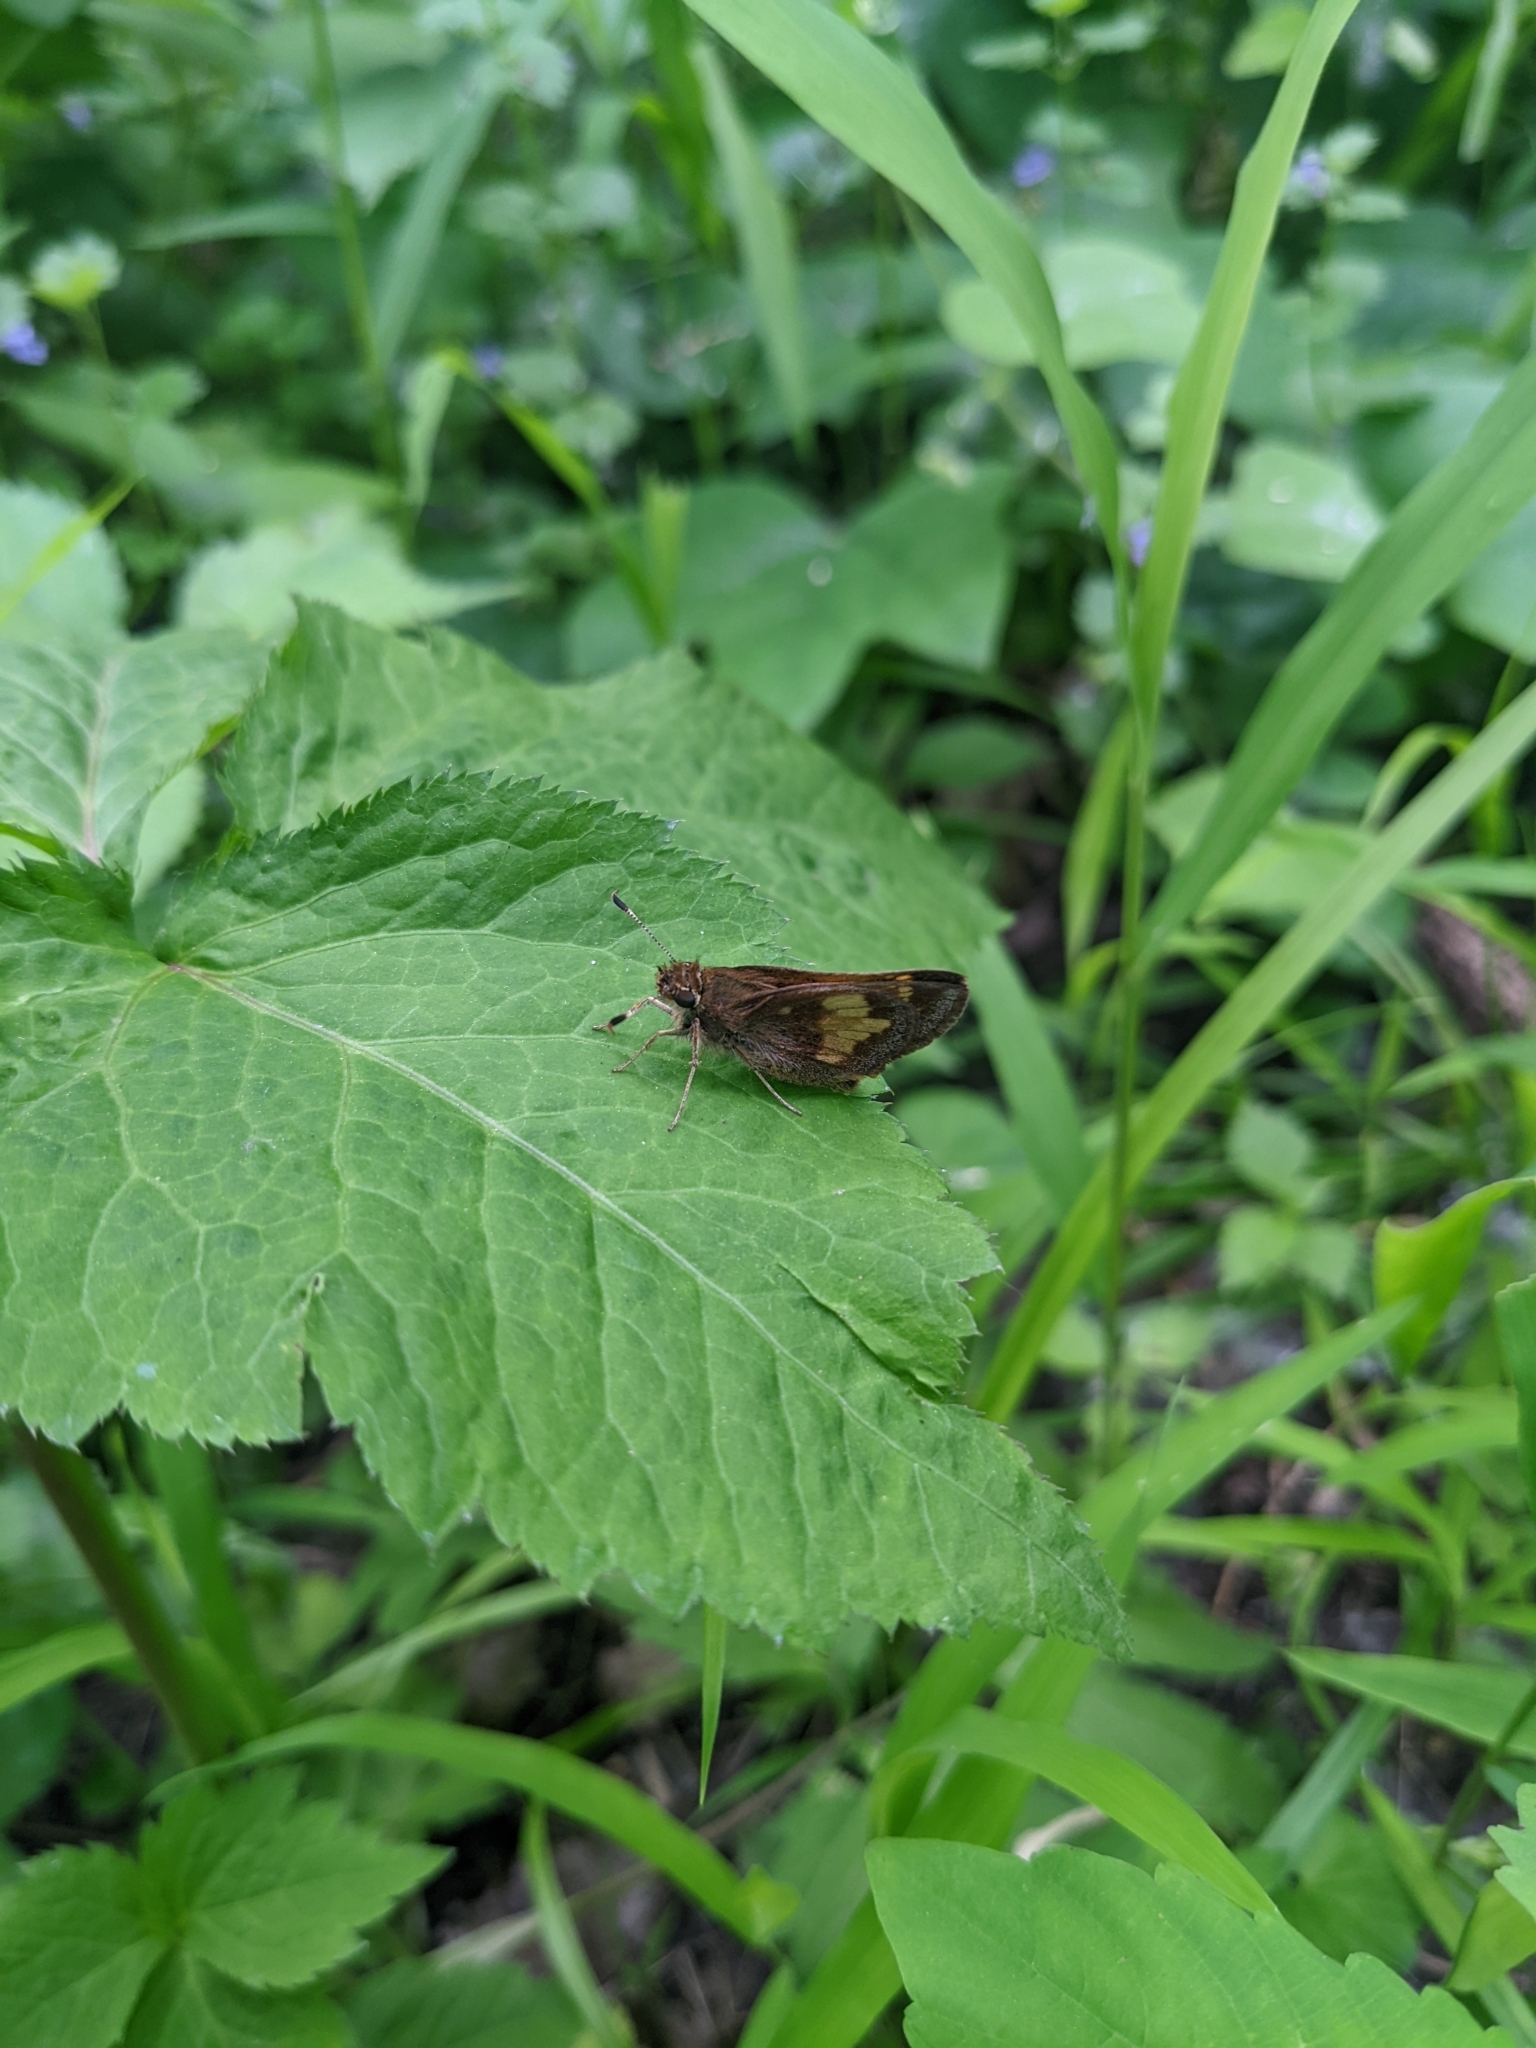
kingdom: Animalia
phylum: Arthropoda
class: Insecta
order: Lepidoptera
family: Hesperiidae
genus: Lon
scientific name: Lon hobomok
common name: Hobomok skipper
